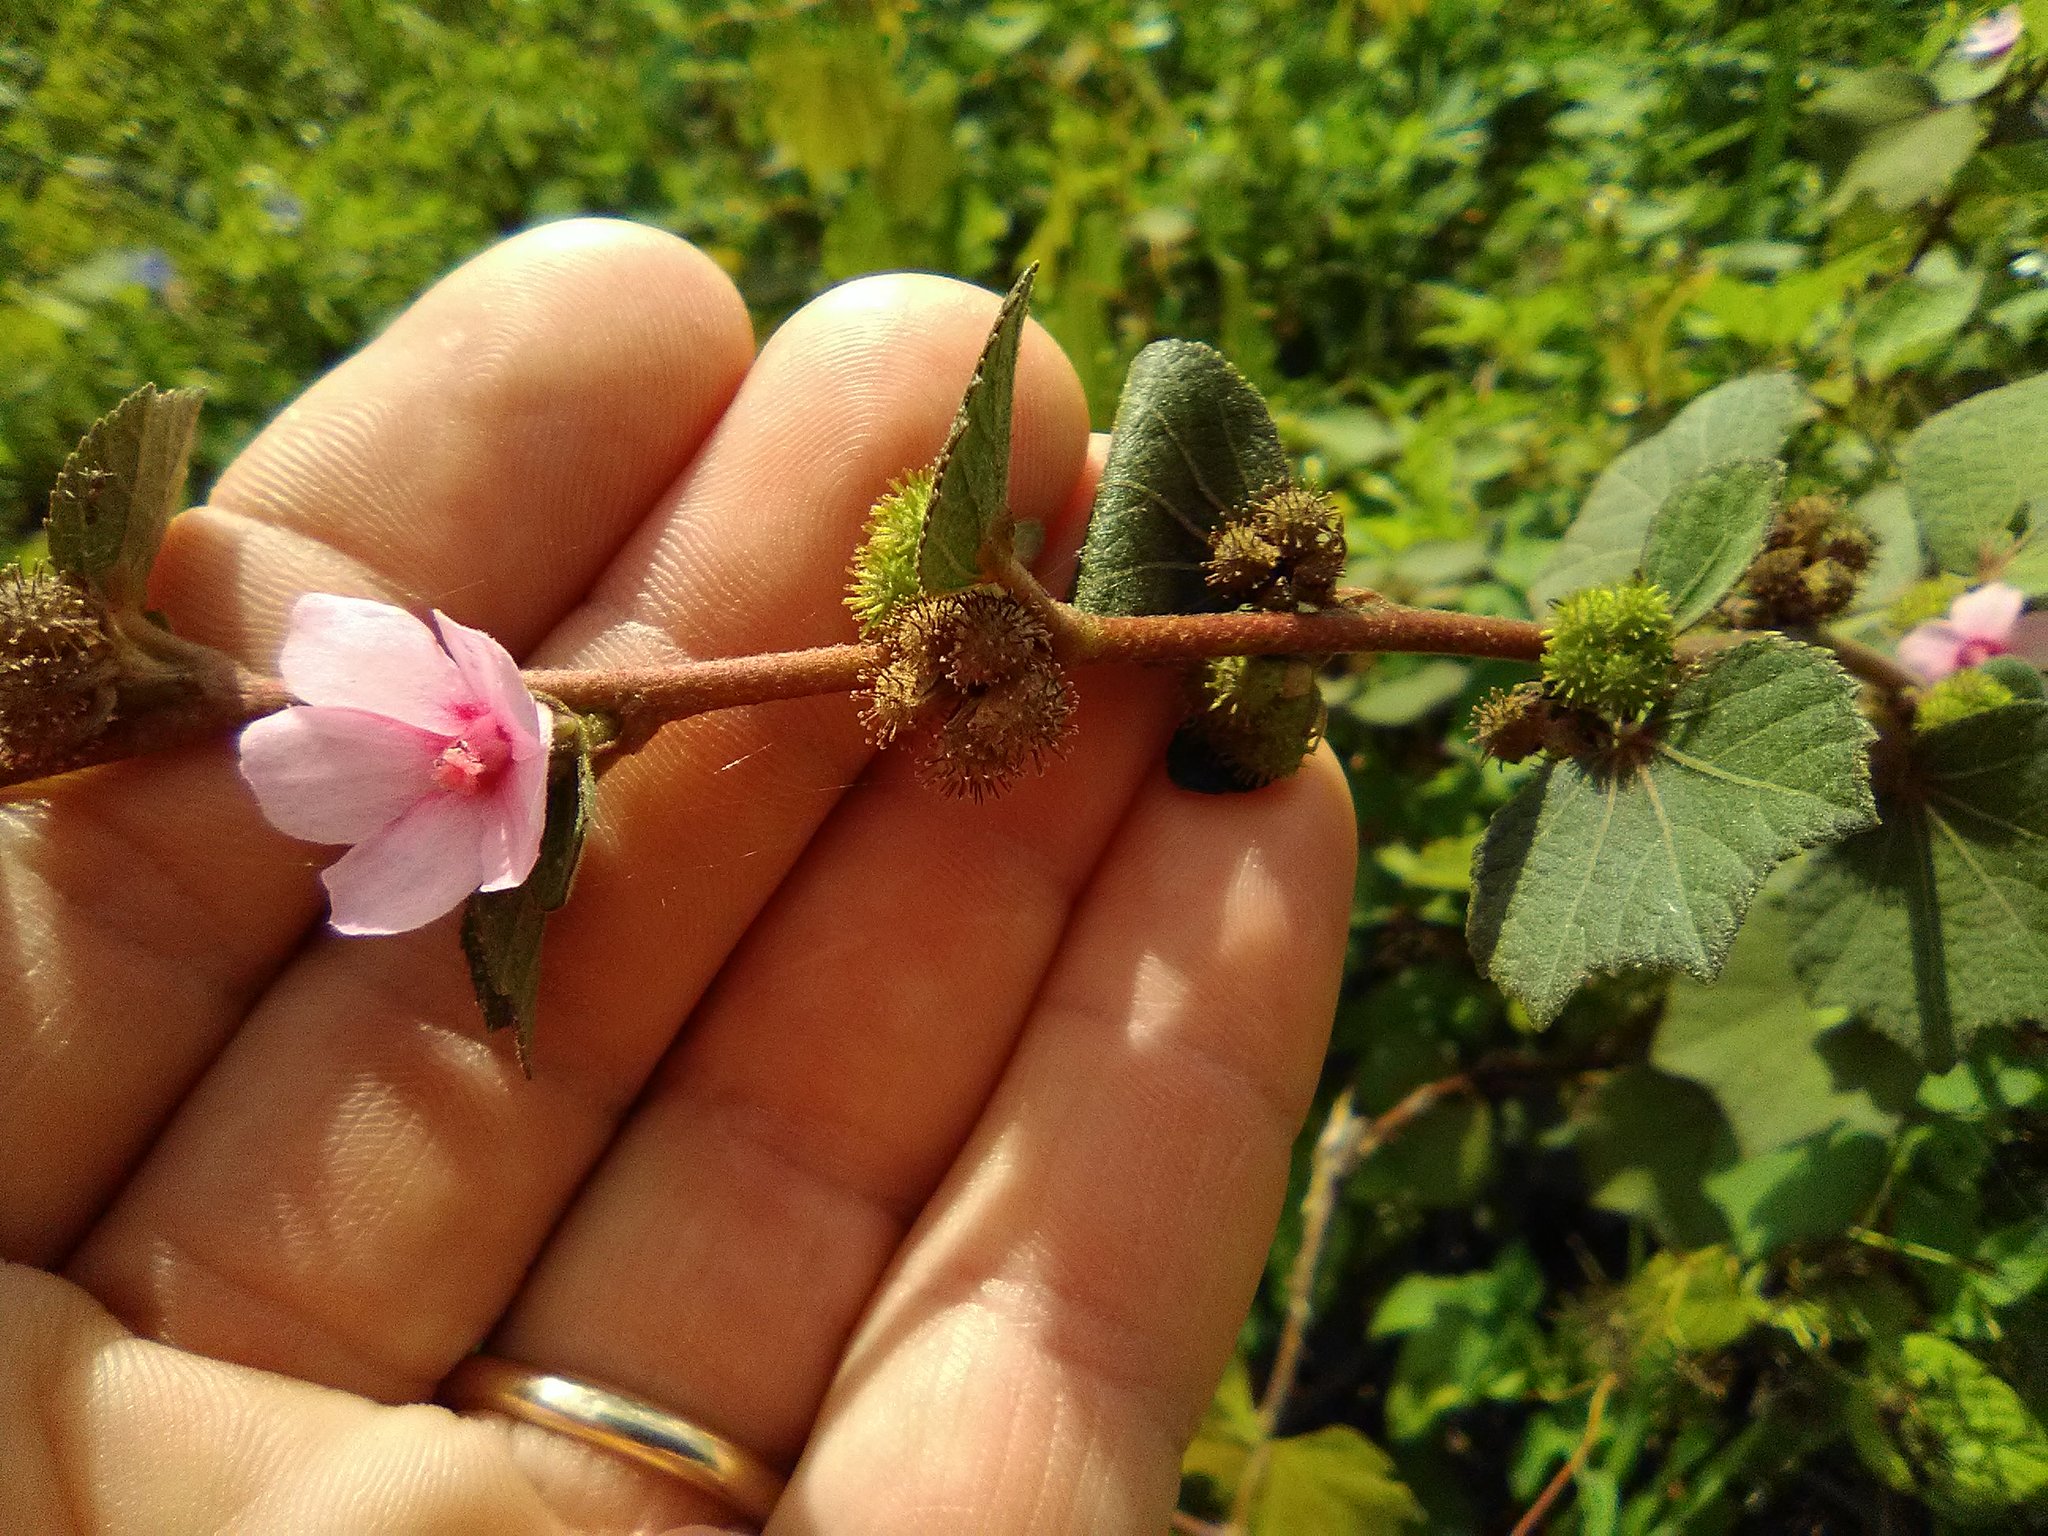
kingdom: Plantae
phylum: Tracheophyta
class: Magnoliopsida
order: Malvales
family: Malvaceae
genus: Urena
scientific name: Urena lobata
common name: Caesarweed
